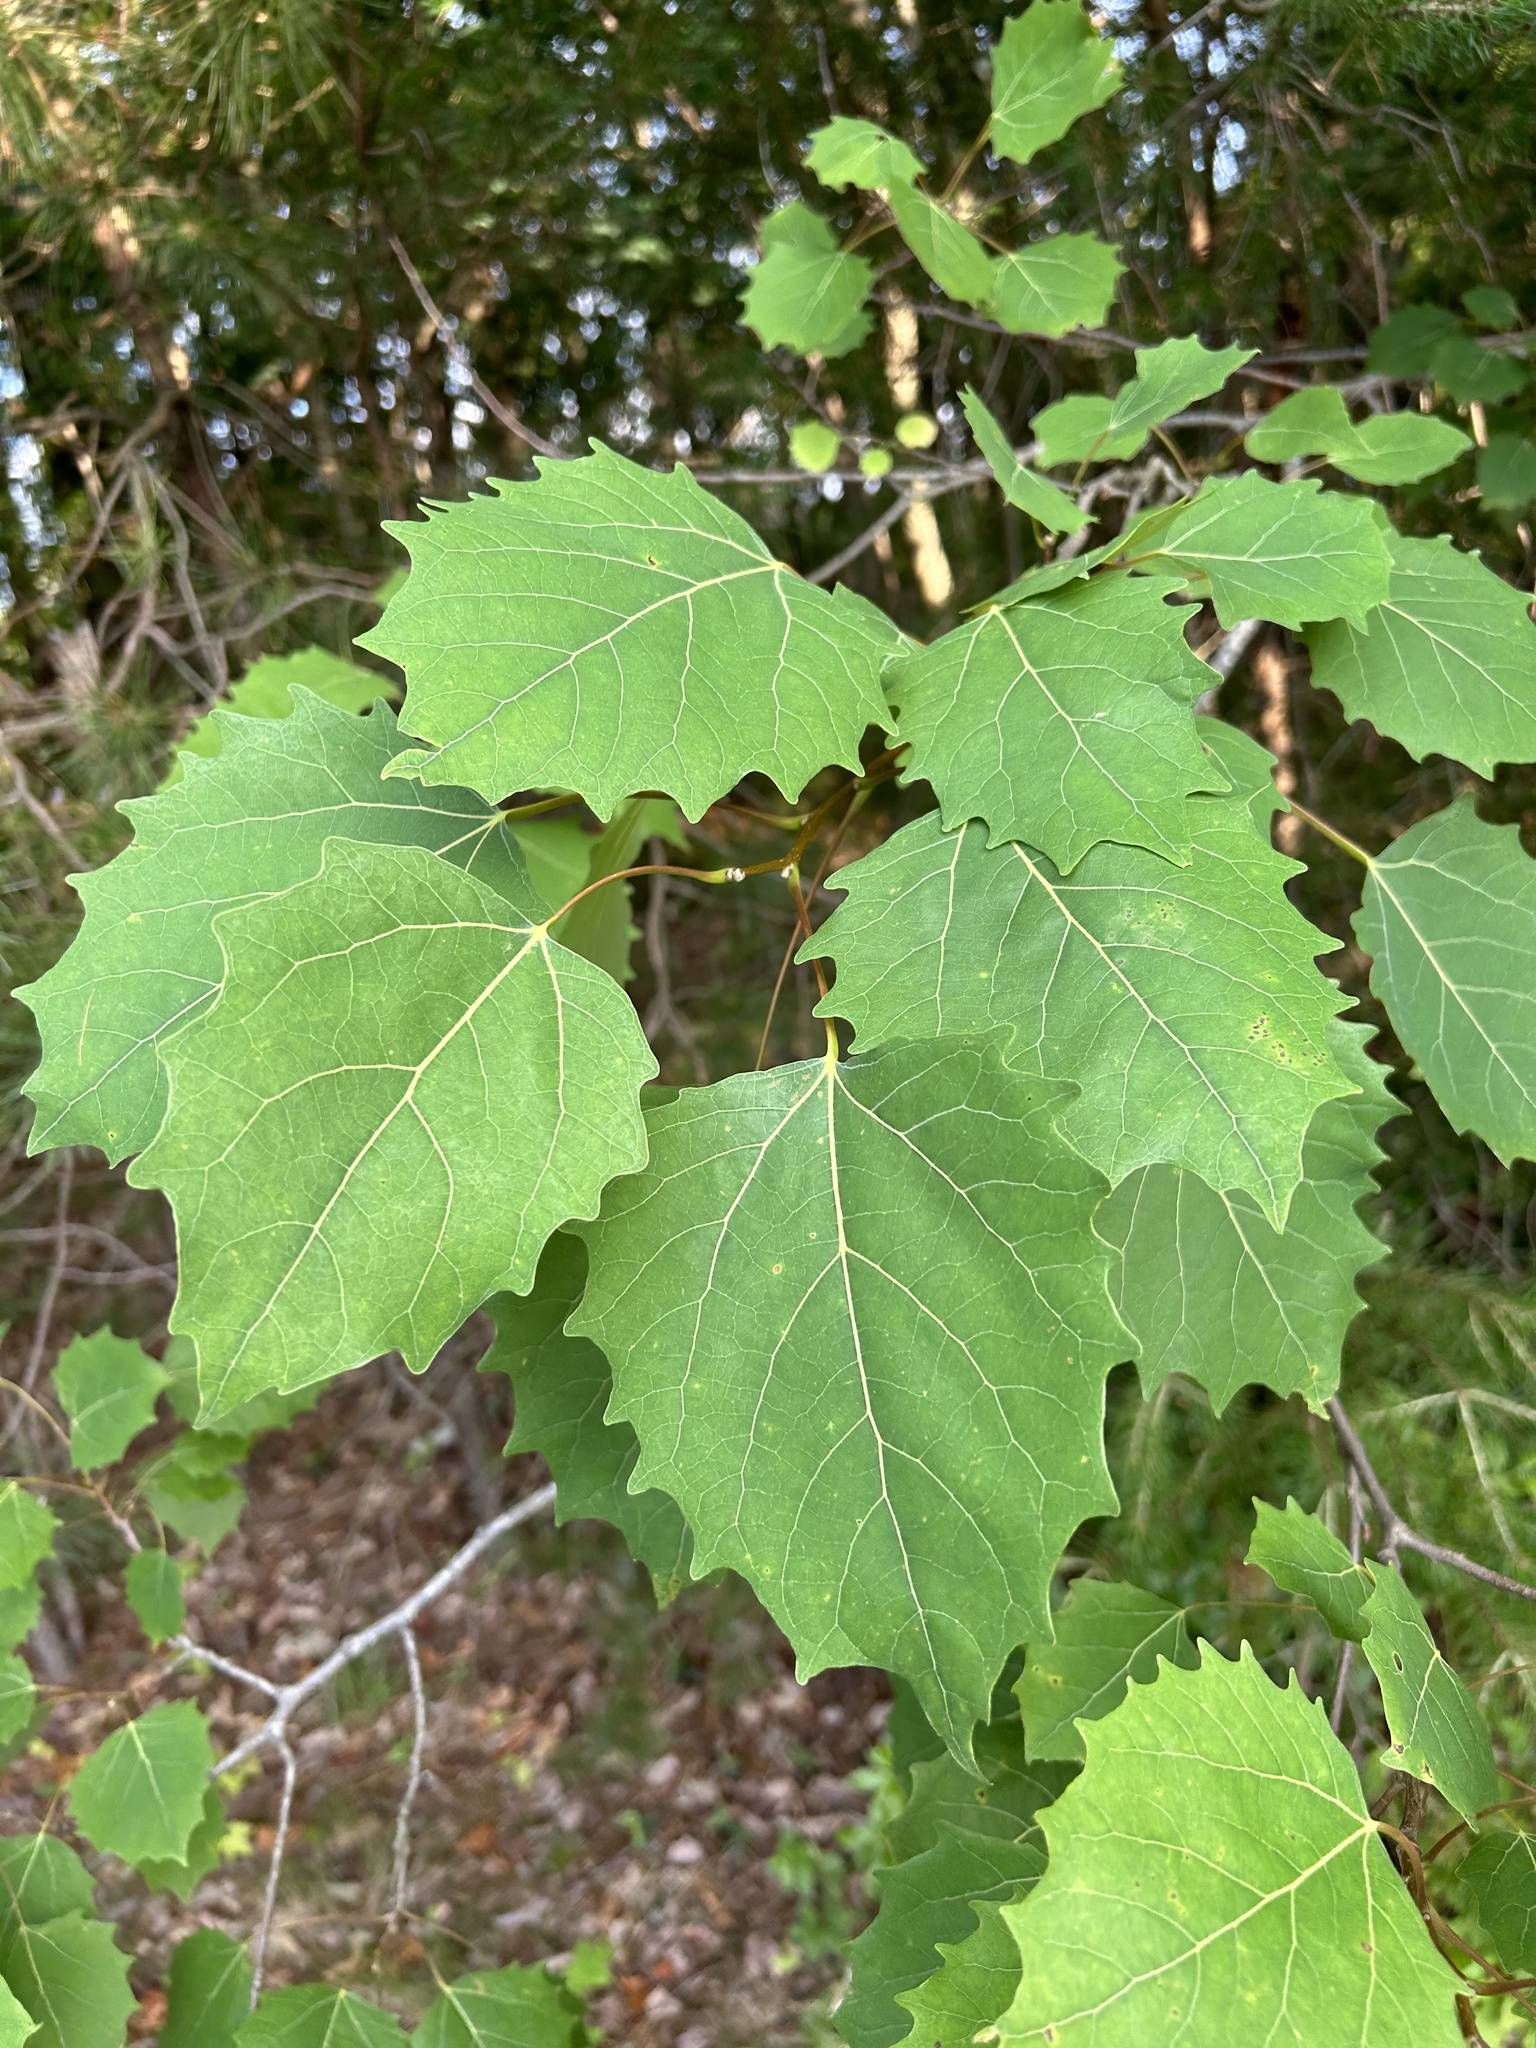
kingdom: Plantae
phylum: Tracheophyta
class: Magnoliopsida
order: Malpighiales
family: Salicaceae
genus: Populus
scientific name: Populus grandidentata
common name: Bigtooth aspen
